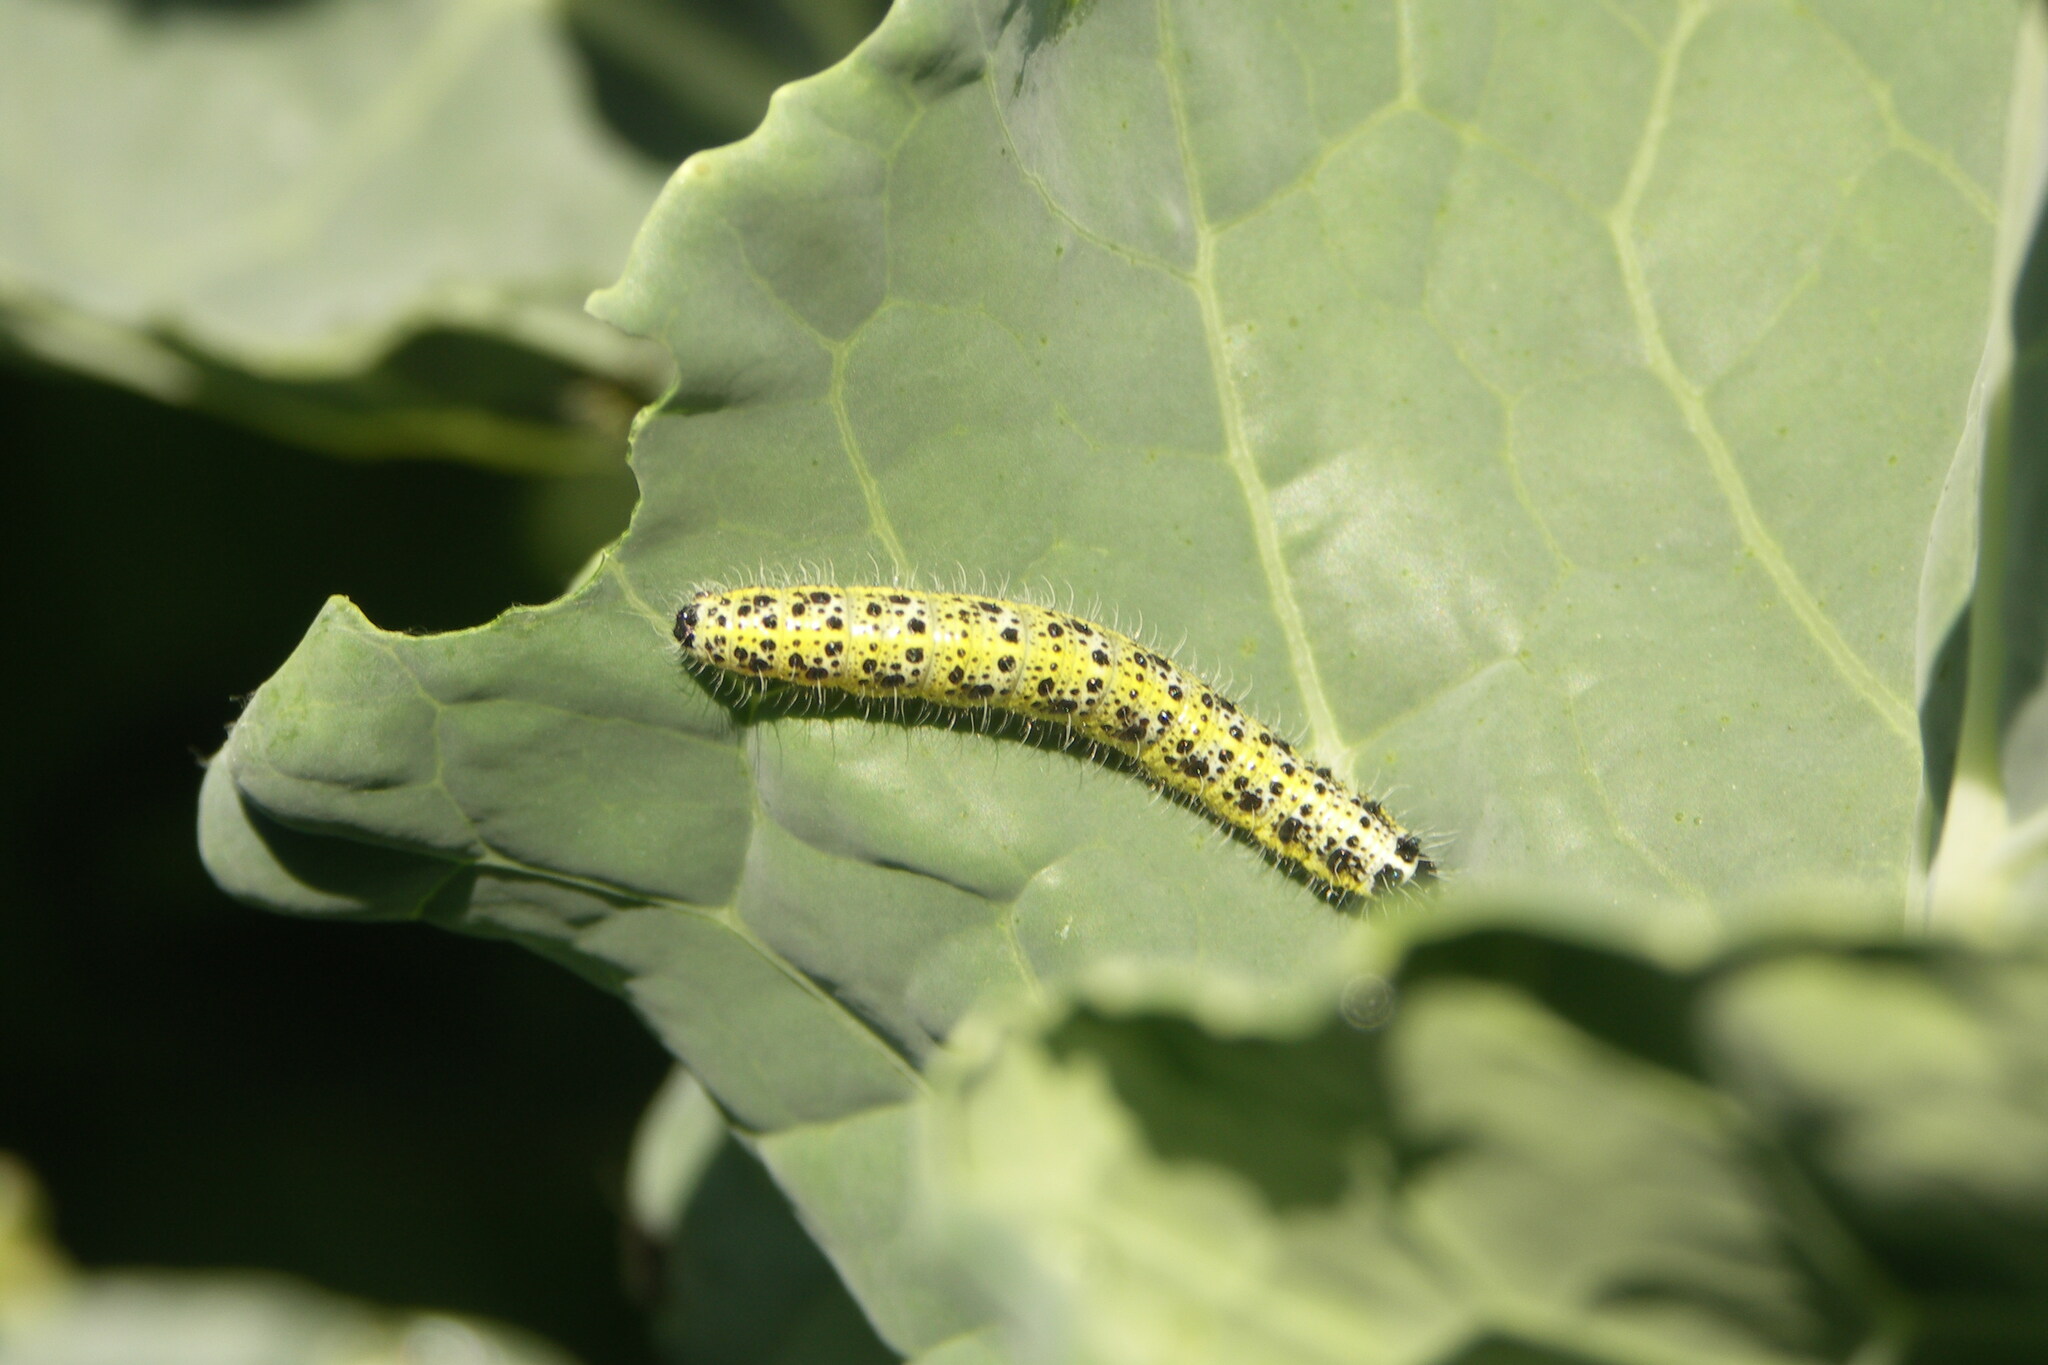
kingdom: Animalia
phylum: Arthropoda
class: Insecta
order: Lepidoptera
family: Pieridae
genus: Pieris
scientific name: Pieris brassicae
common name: Large white
